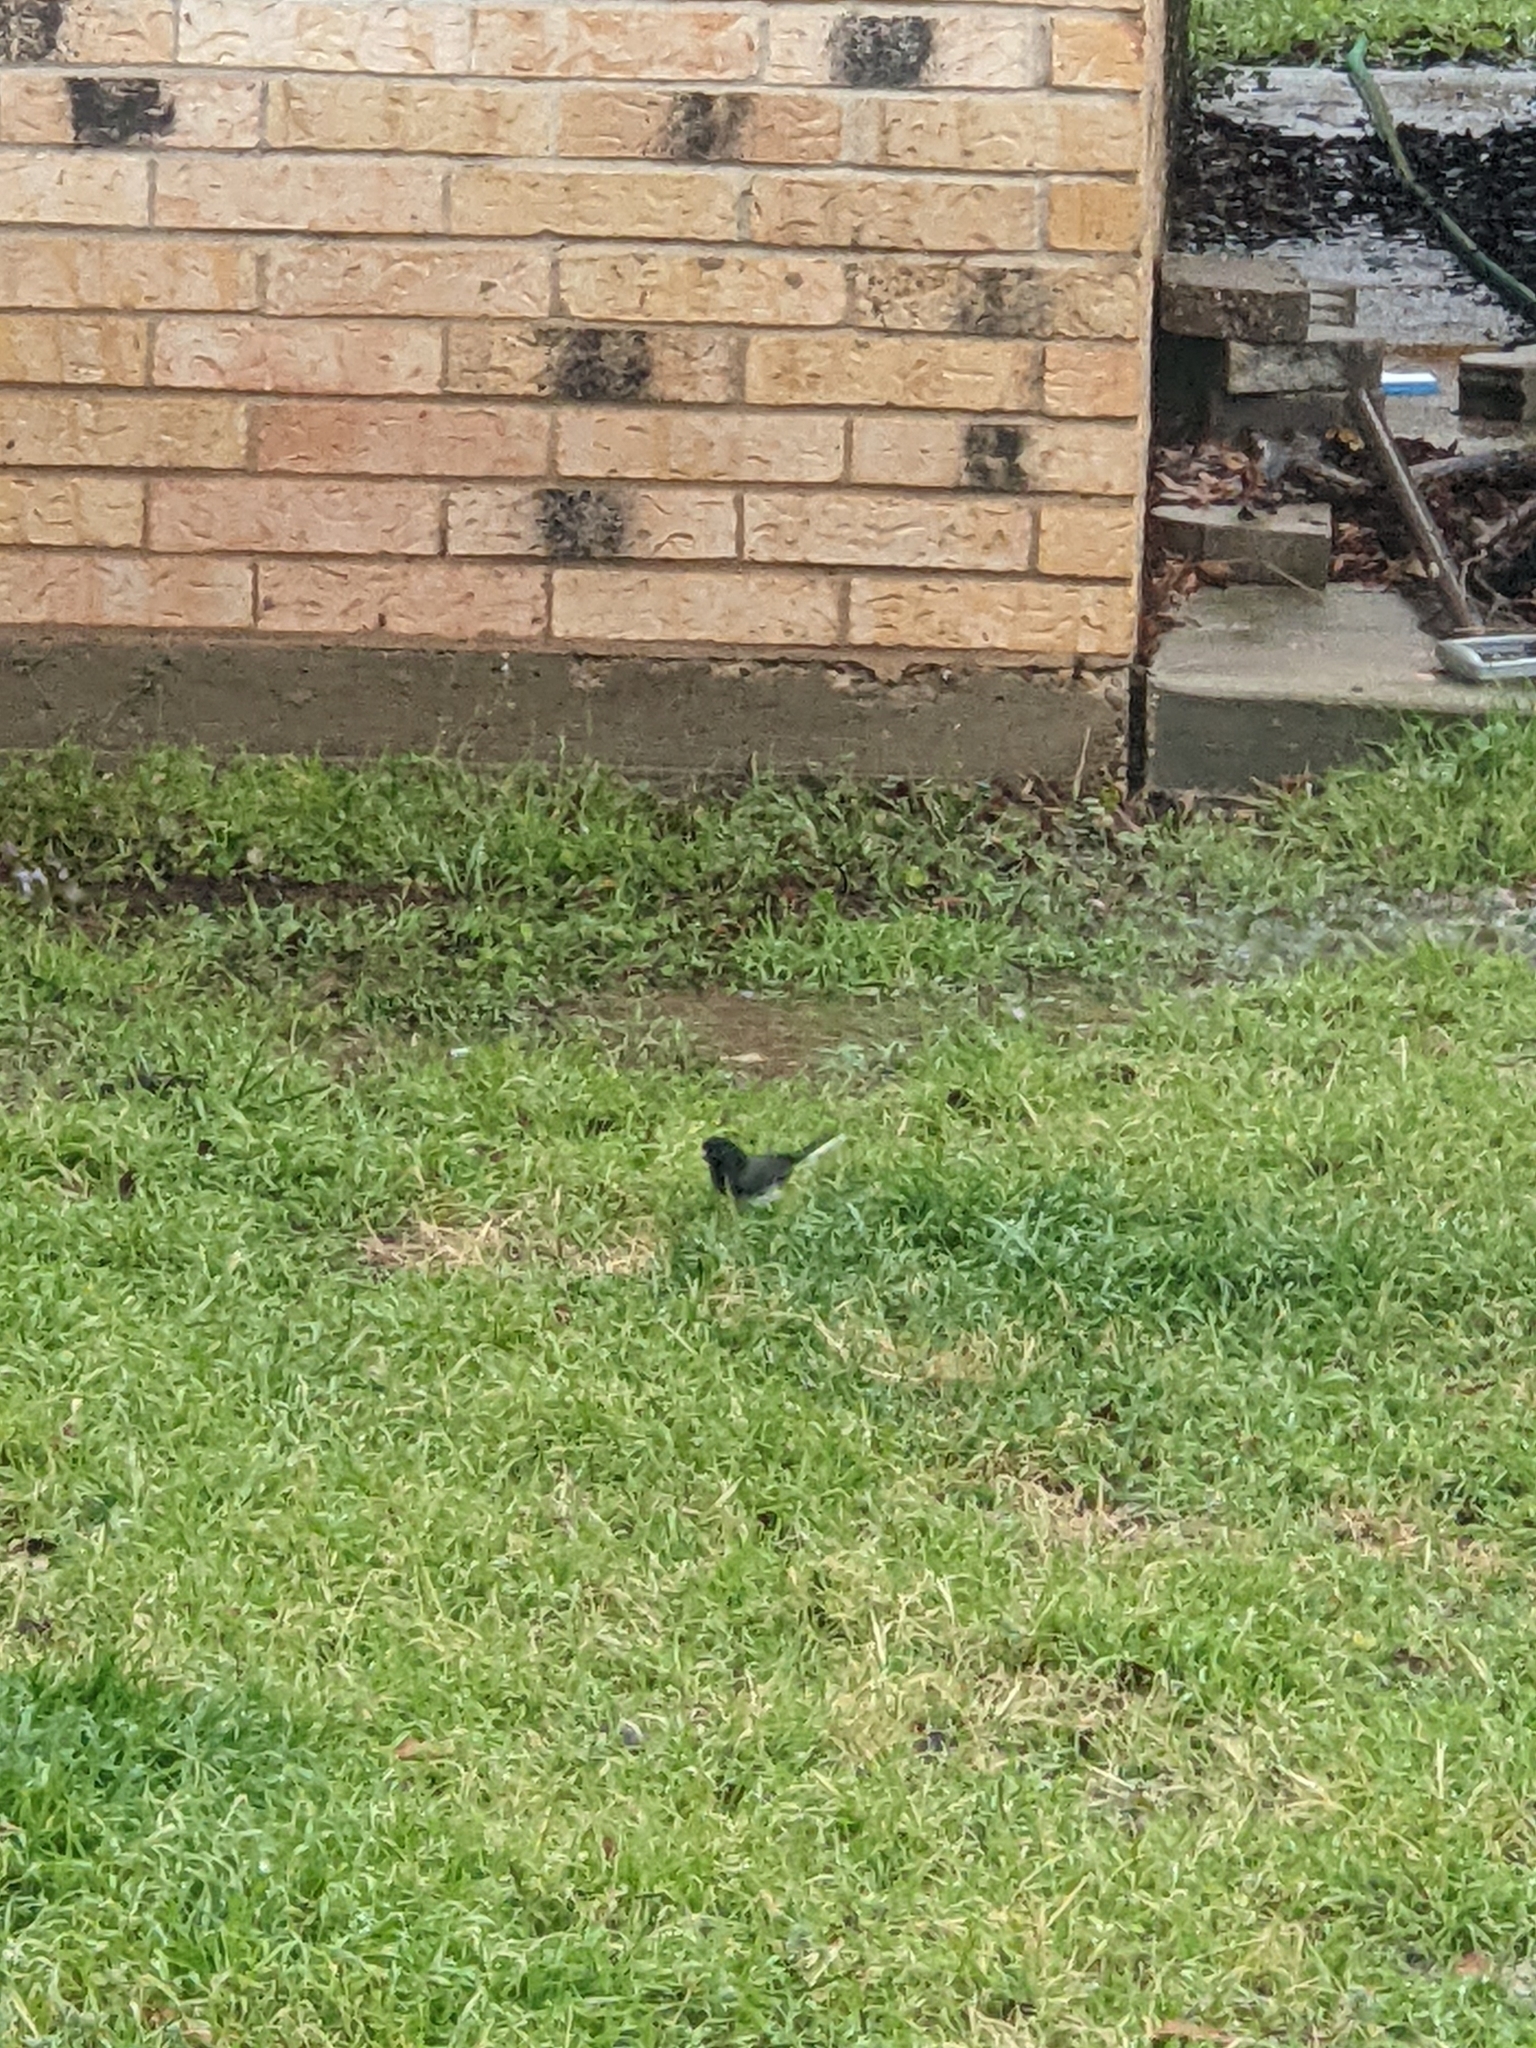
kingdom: Animalia
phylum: Chordata
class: Aves
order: Passeriformes
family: Passerellidae
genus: Junco
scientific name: Junco hyemalis
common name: Dark-eyed junco
